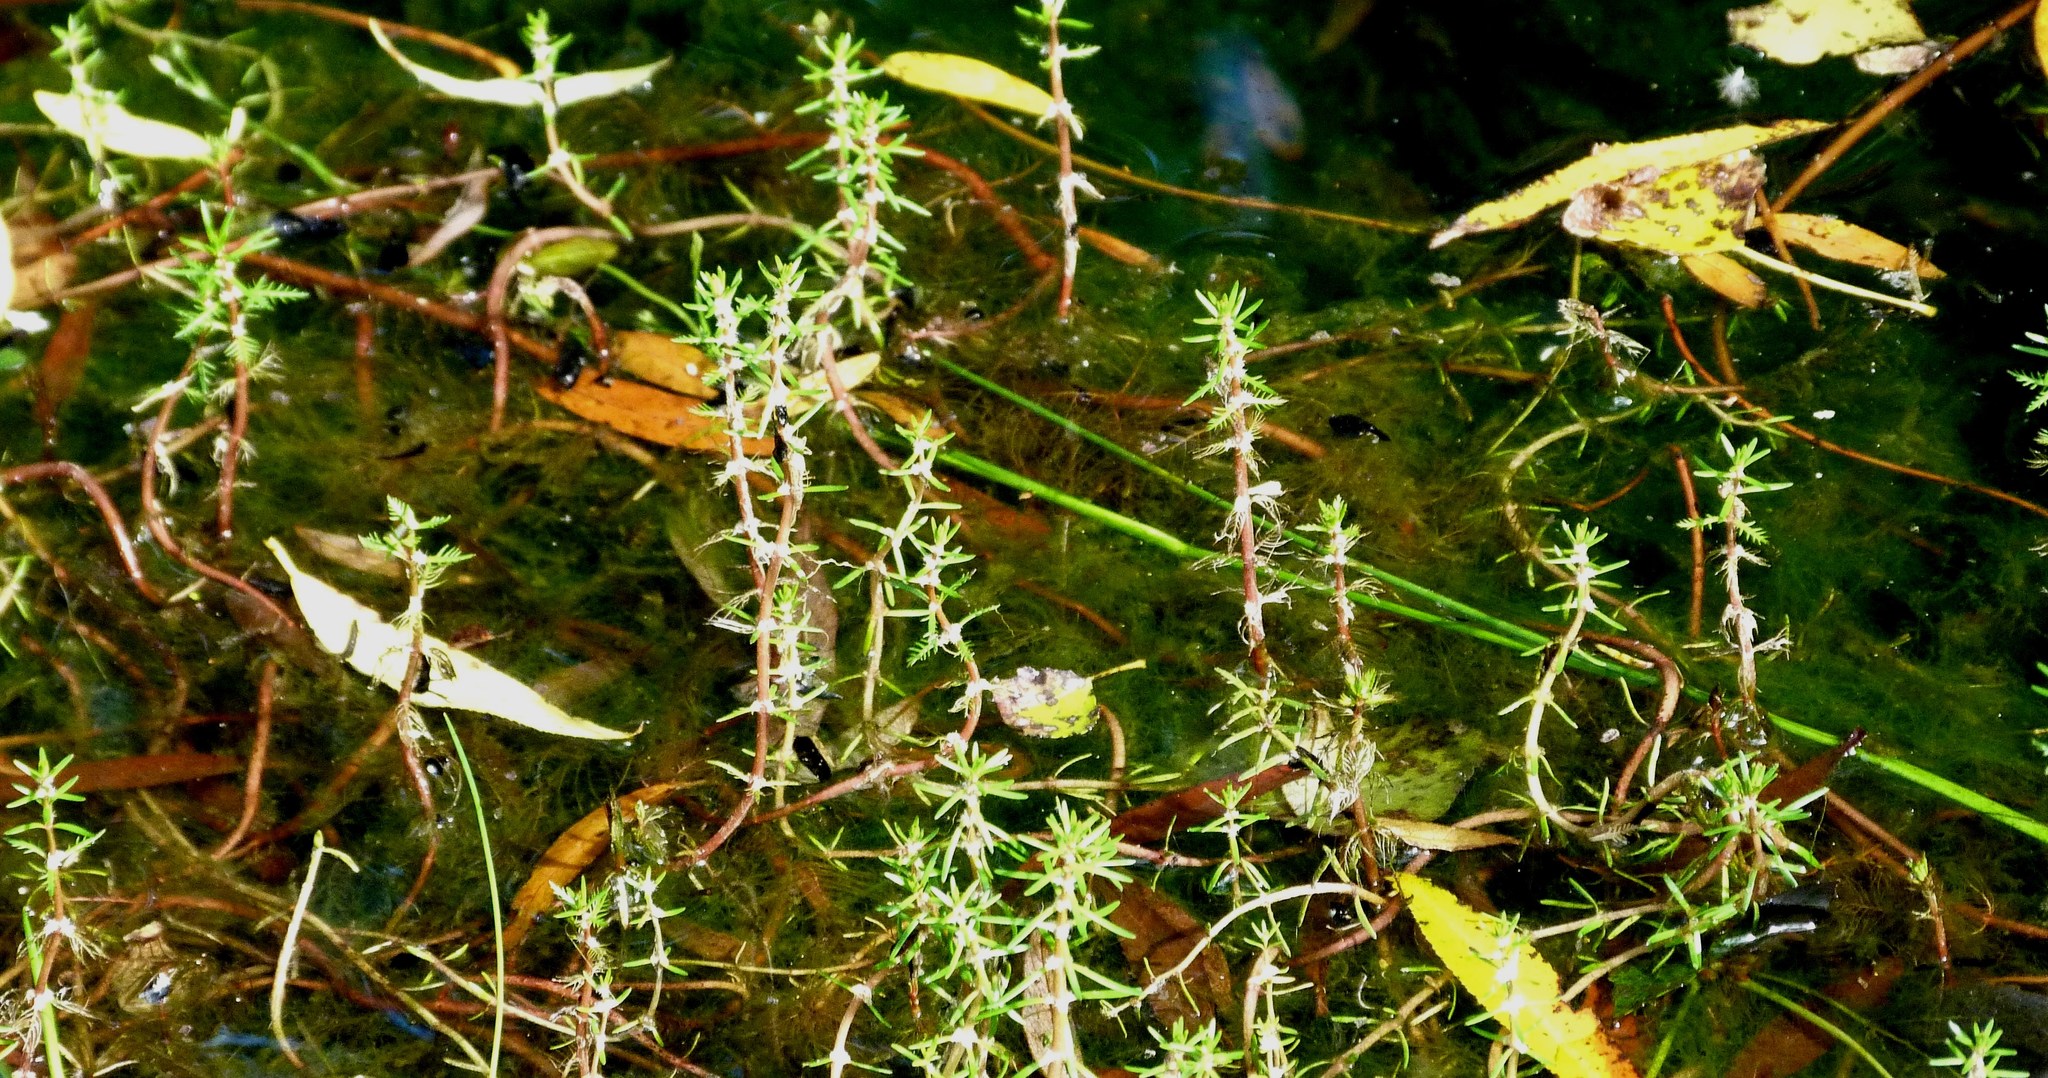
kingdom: Plantae
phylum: Tracheophyta
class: Magnoliopsida
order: Saxifragales
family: Haloragaceae
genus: Myriophyllum
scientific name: Myriophyllum propinquum
